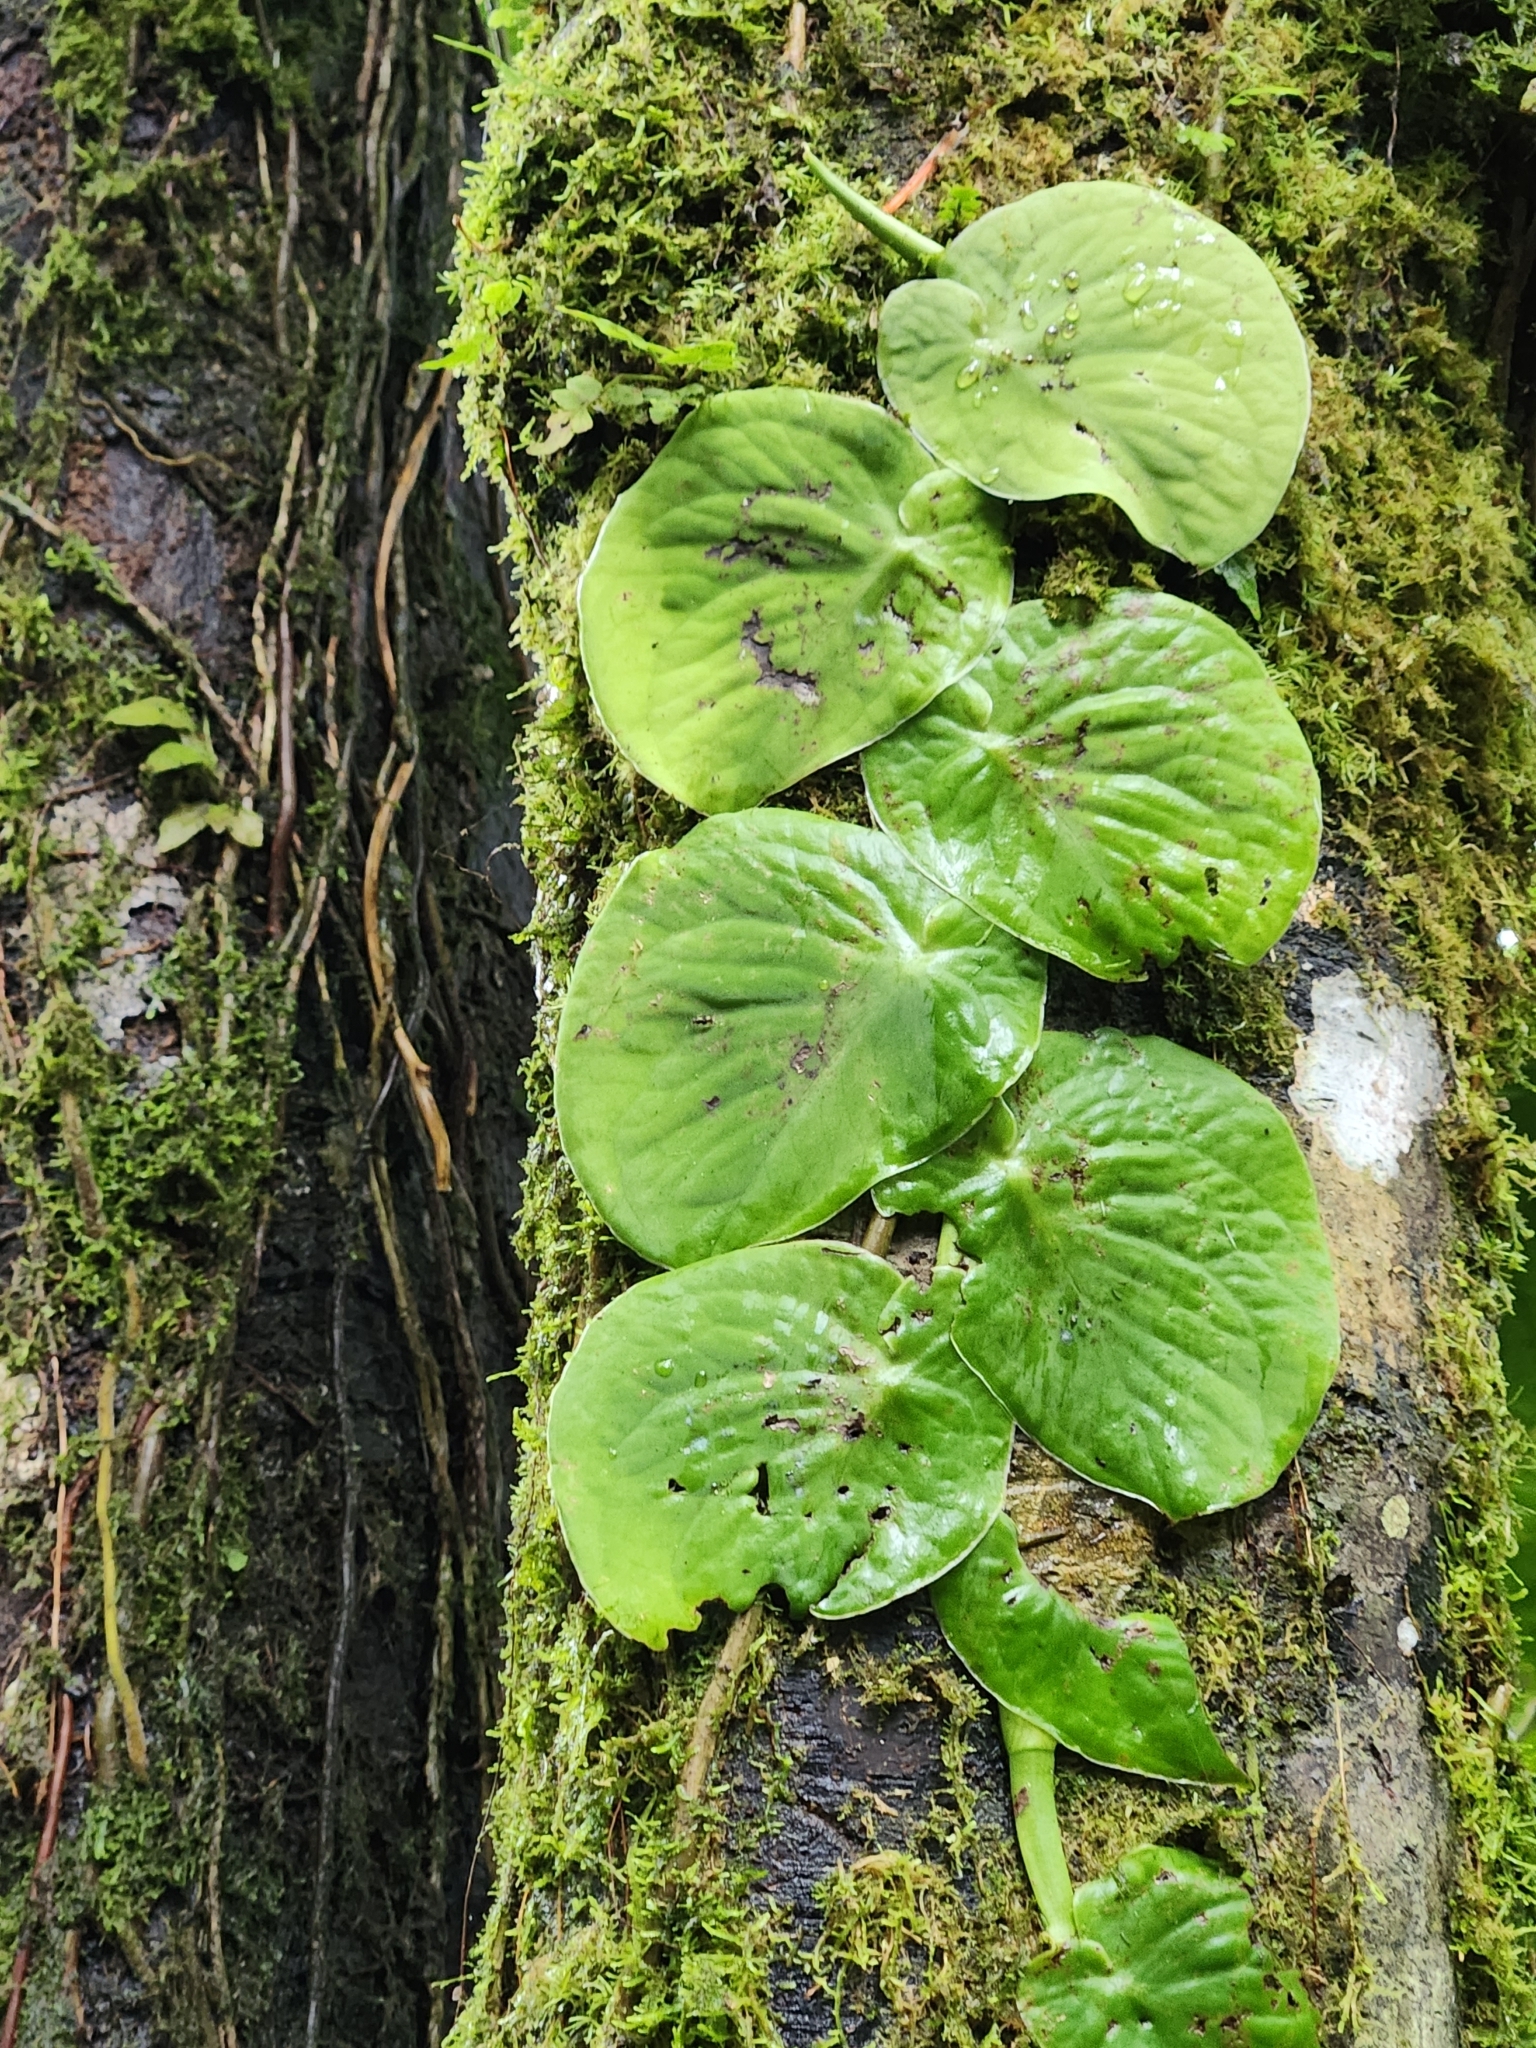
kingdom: Plantae
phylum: Tracheophyta
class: Liliopsida
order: Alismatales
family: Araceae
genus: Monstera
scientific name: Monstera spruceana
